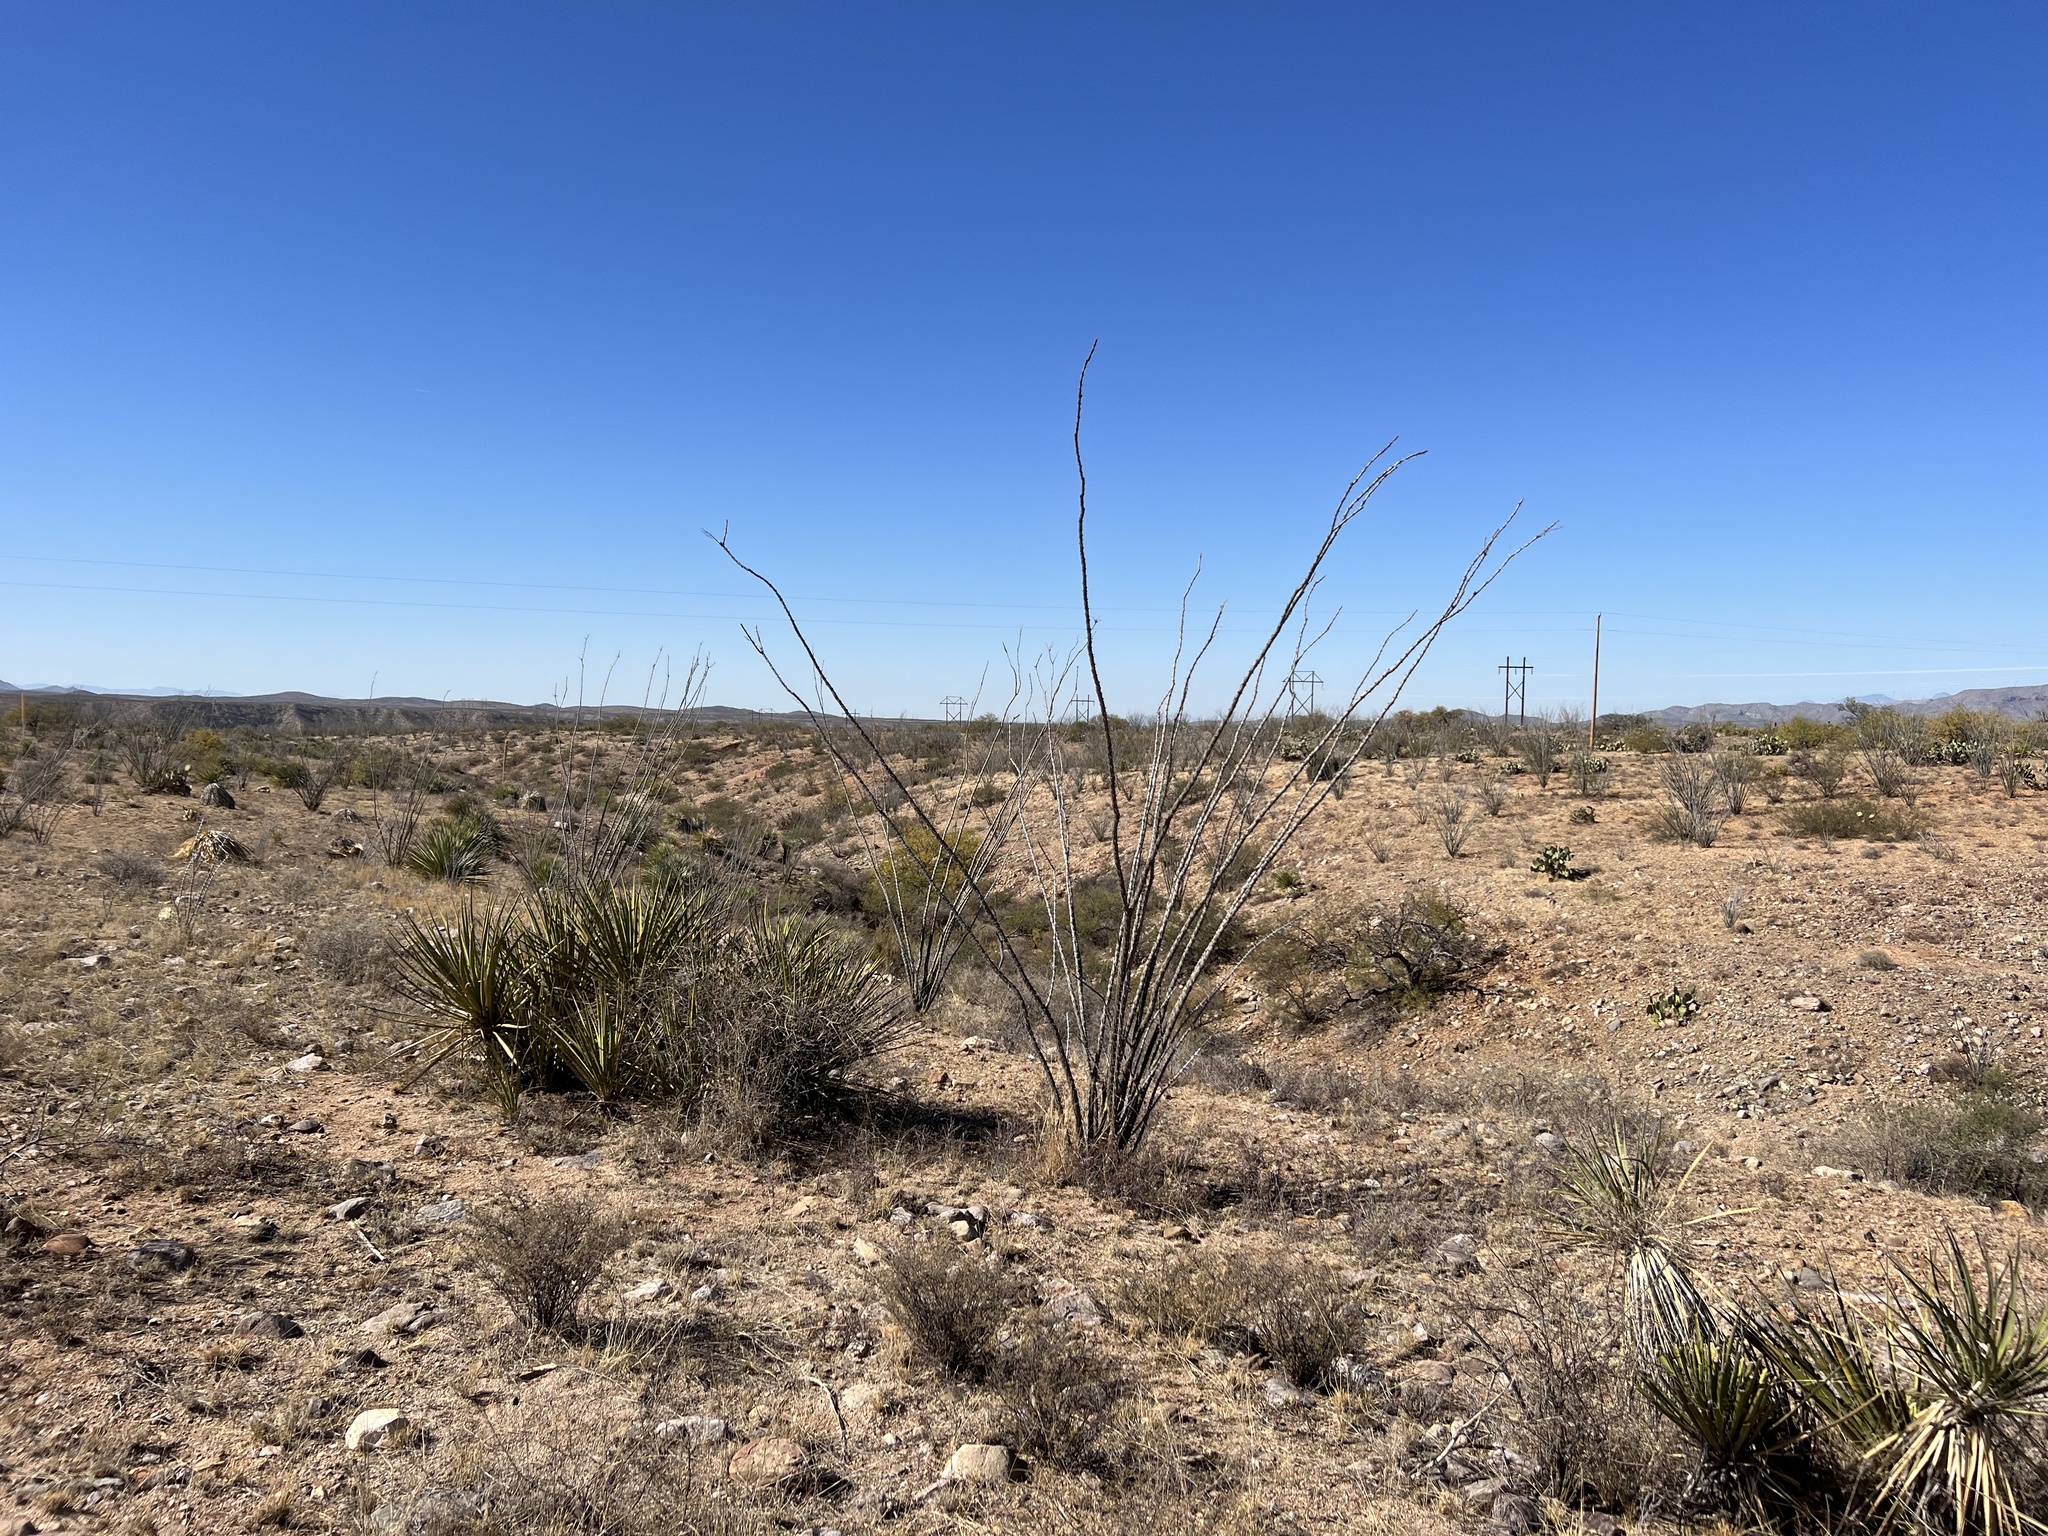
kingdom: Plantae
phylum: Tracheophyta
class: Magnoliopsida
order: Ericales
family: Fouquieriaceae
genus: Fouquieria
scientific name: Fouquieria splendens
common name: Vine-cactus
